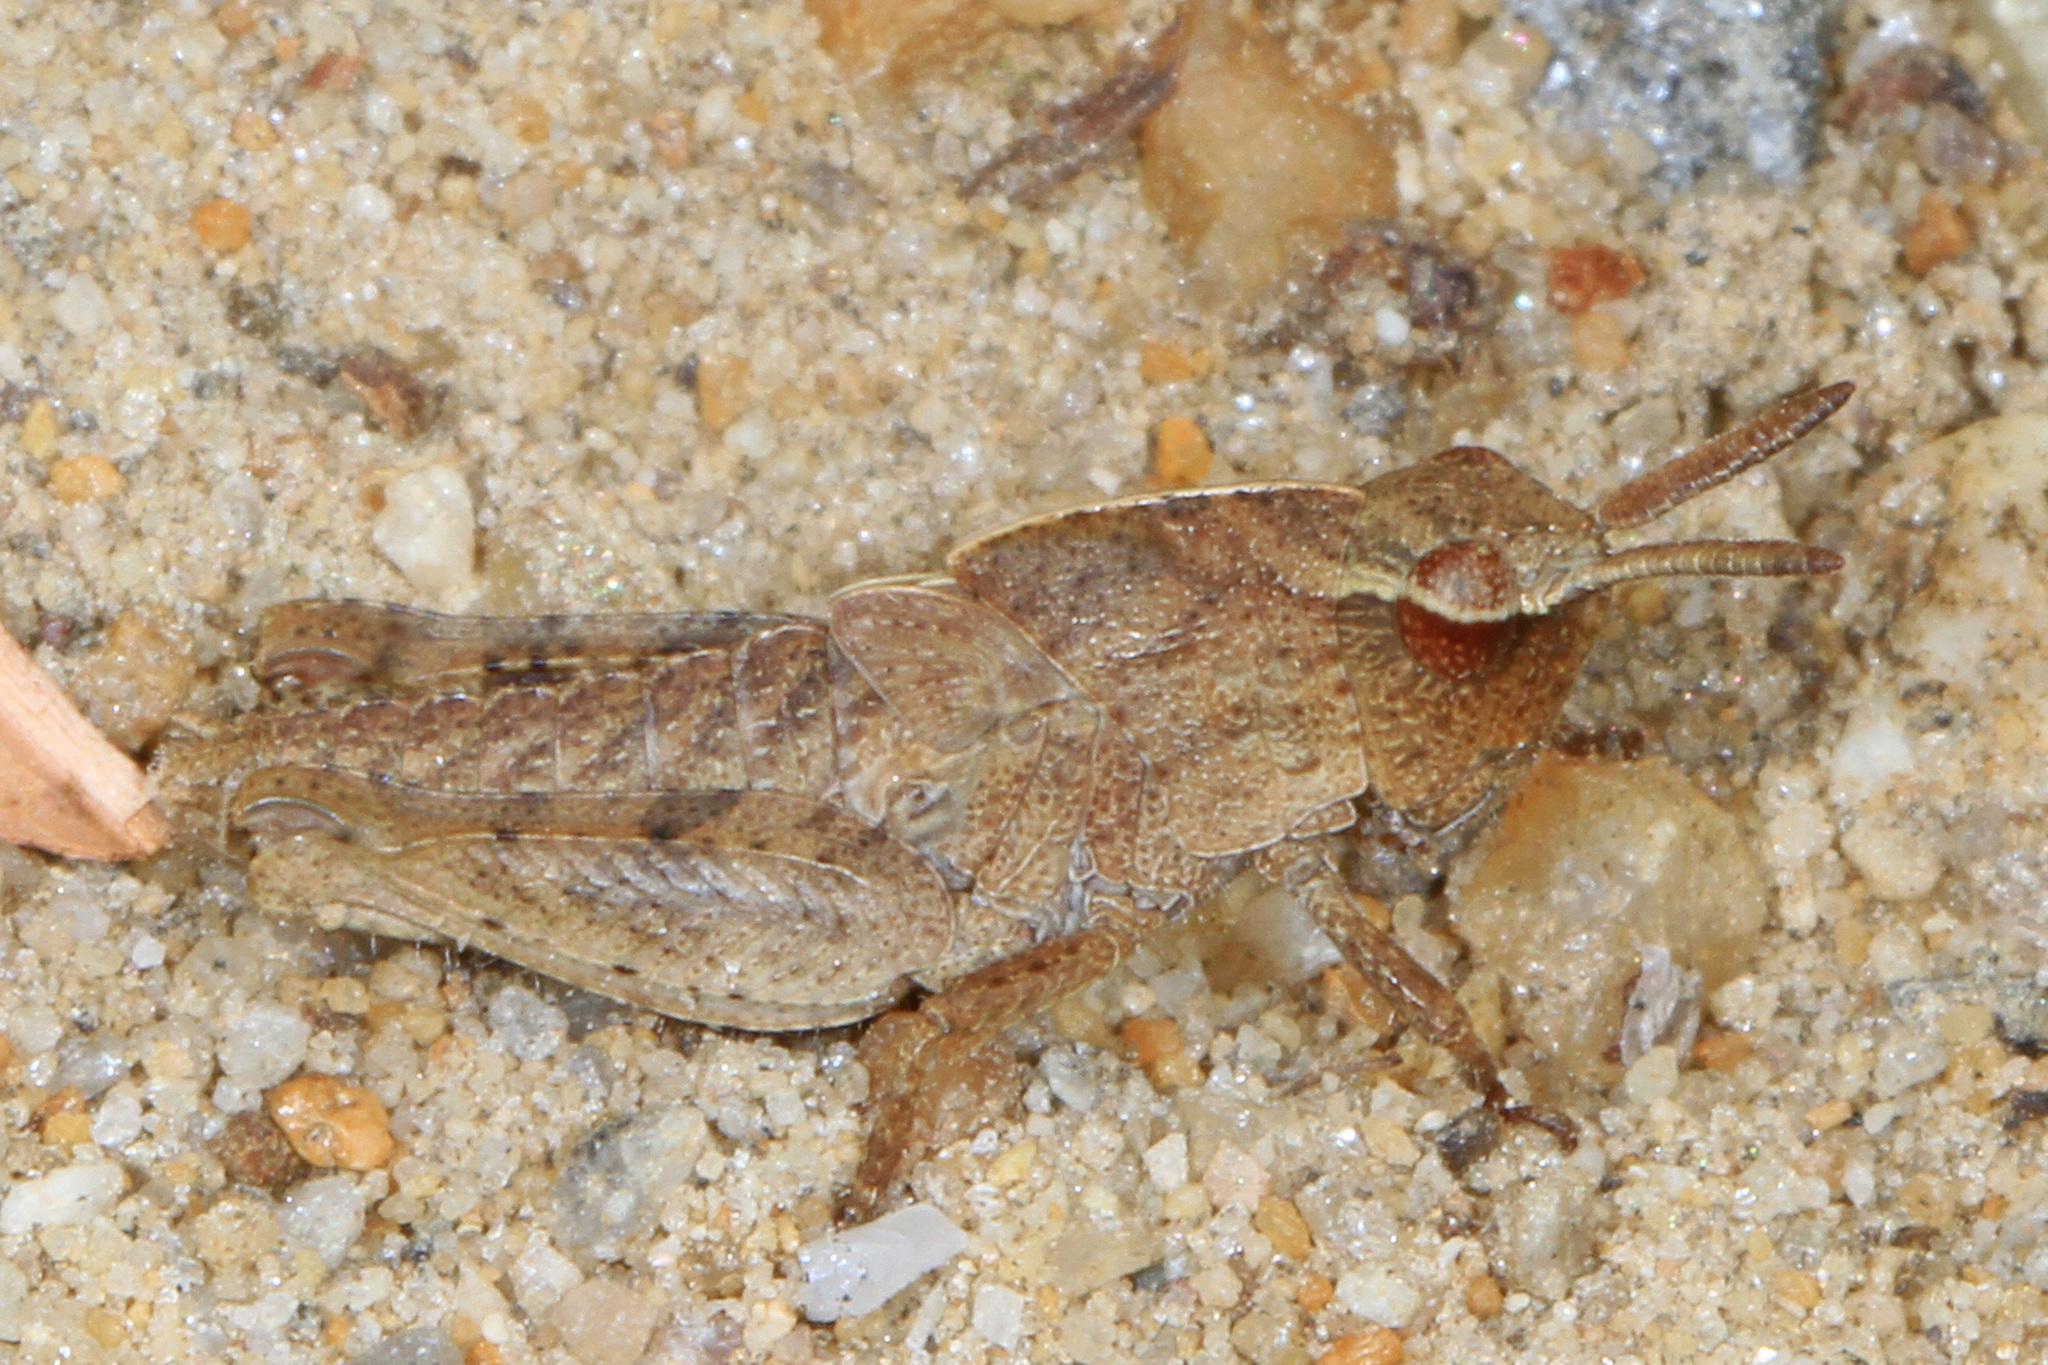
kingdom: Animalia
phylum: Arthropoda
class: Insecta
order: Orthoptera
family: Acrididae
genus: Chortophaga
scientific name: Chortophaga viridifasciata
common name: Green-striped grasshopper
